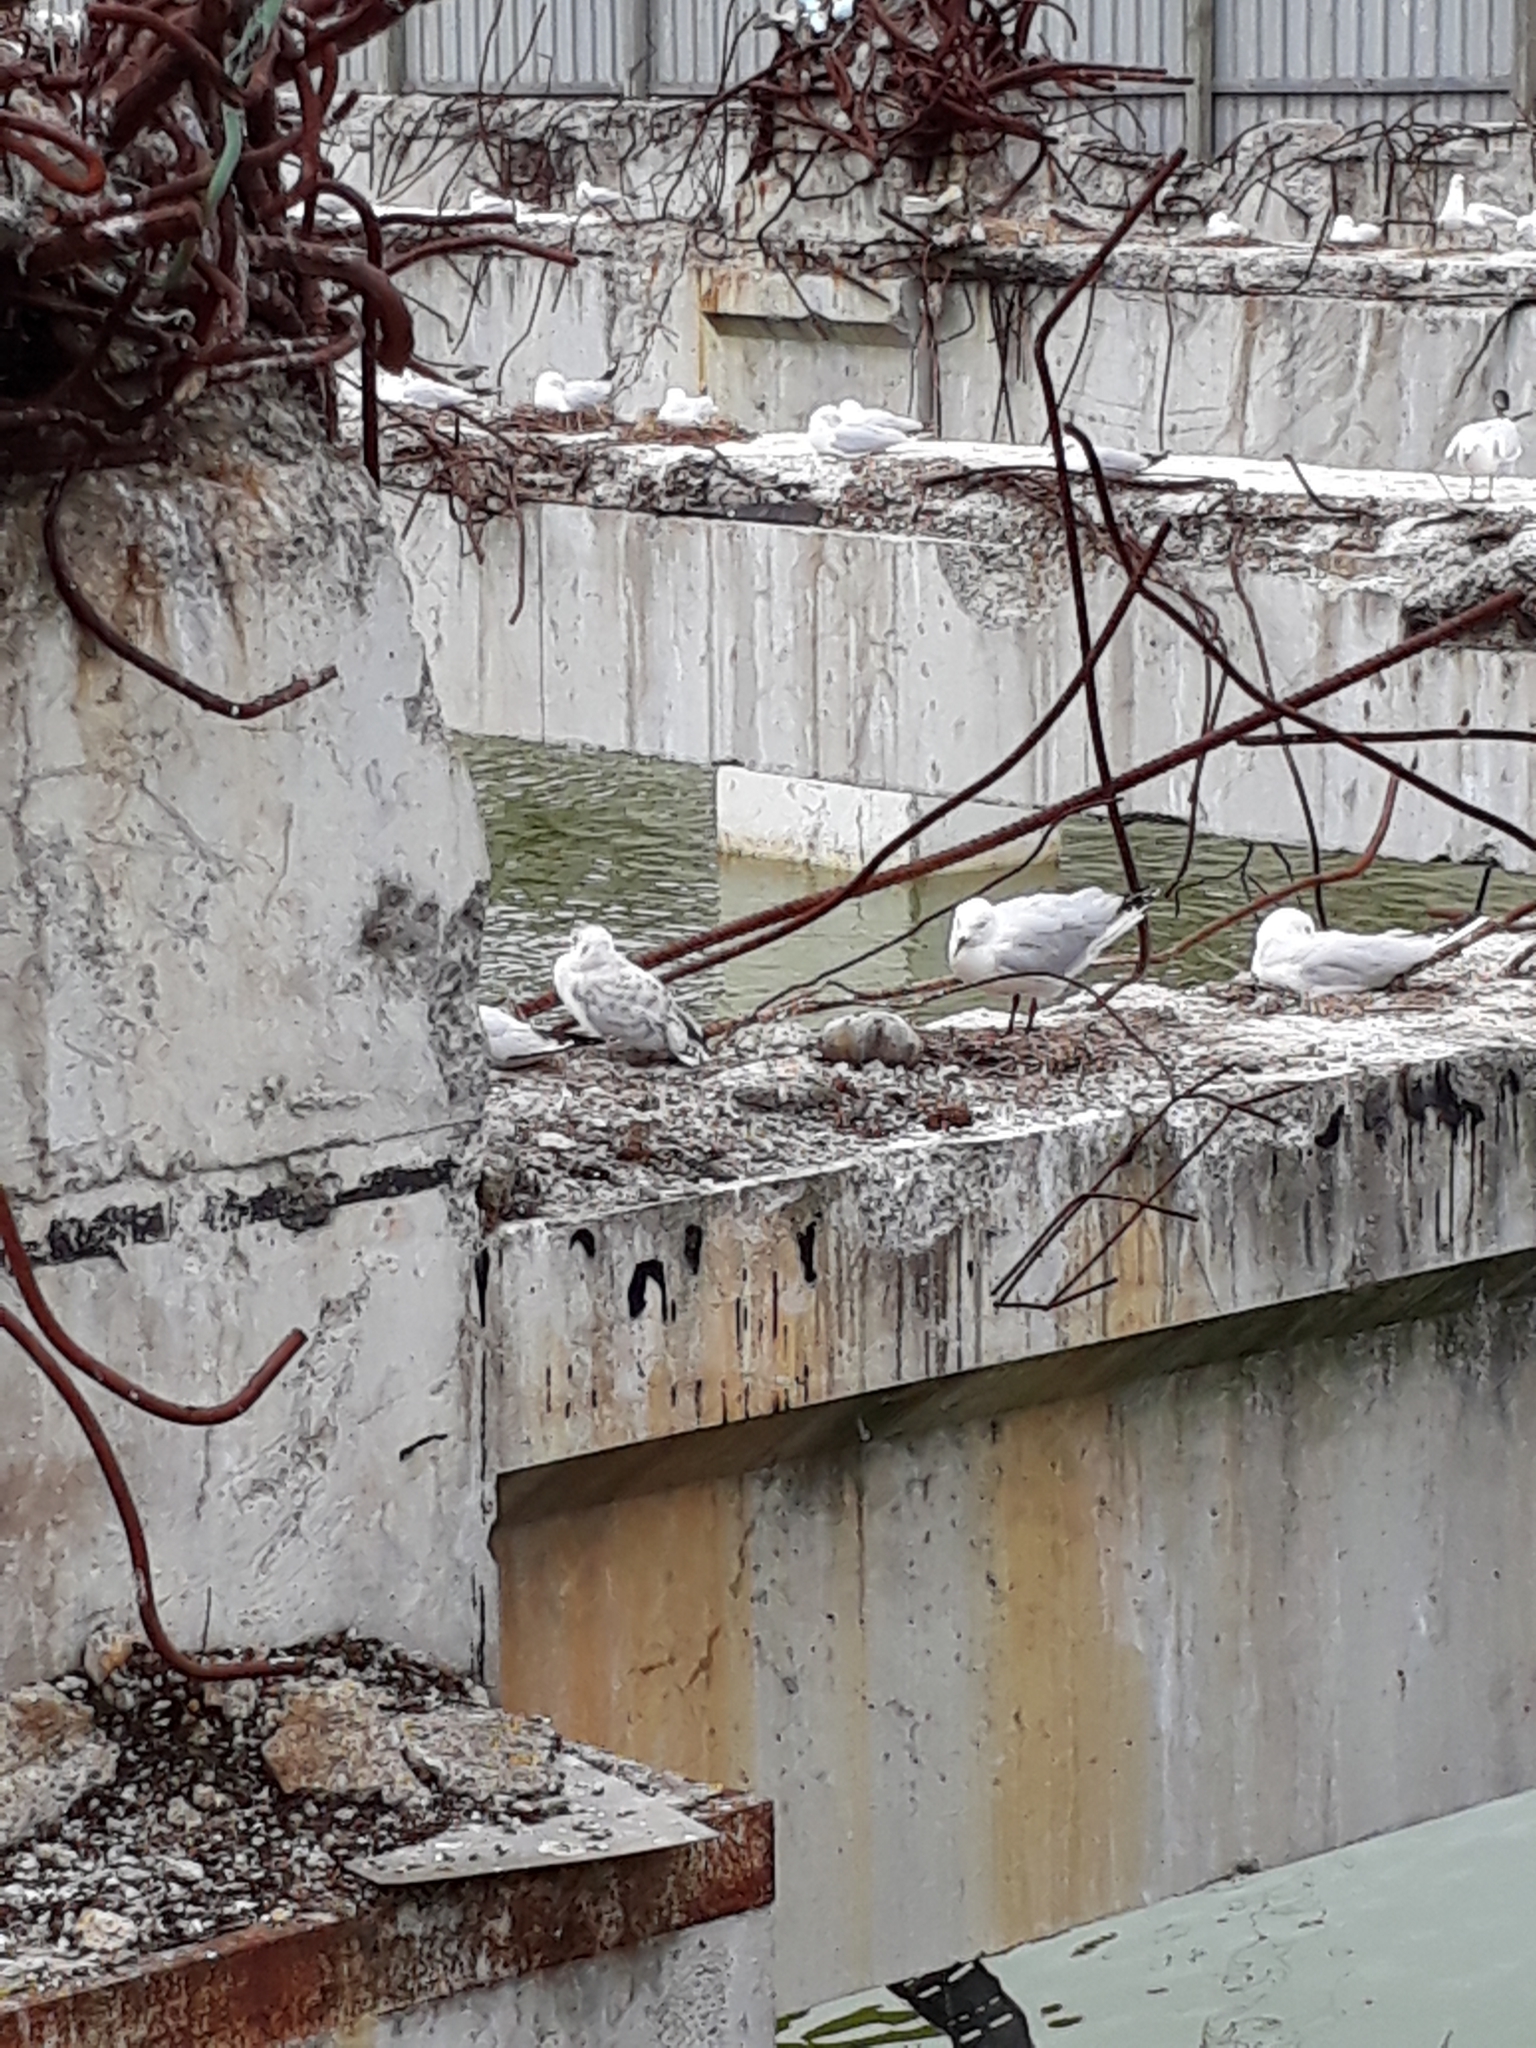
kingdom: Animalia
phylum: Chordata
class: Aves
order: Charadriiformes
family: Laridae
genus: Chroicocephalus
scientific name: Chroicocephalus bulleri
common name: Black-billed gull
